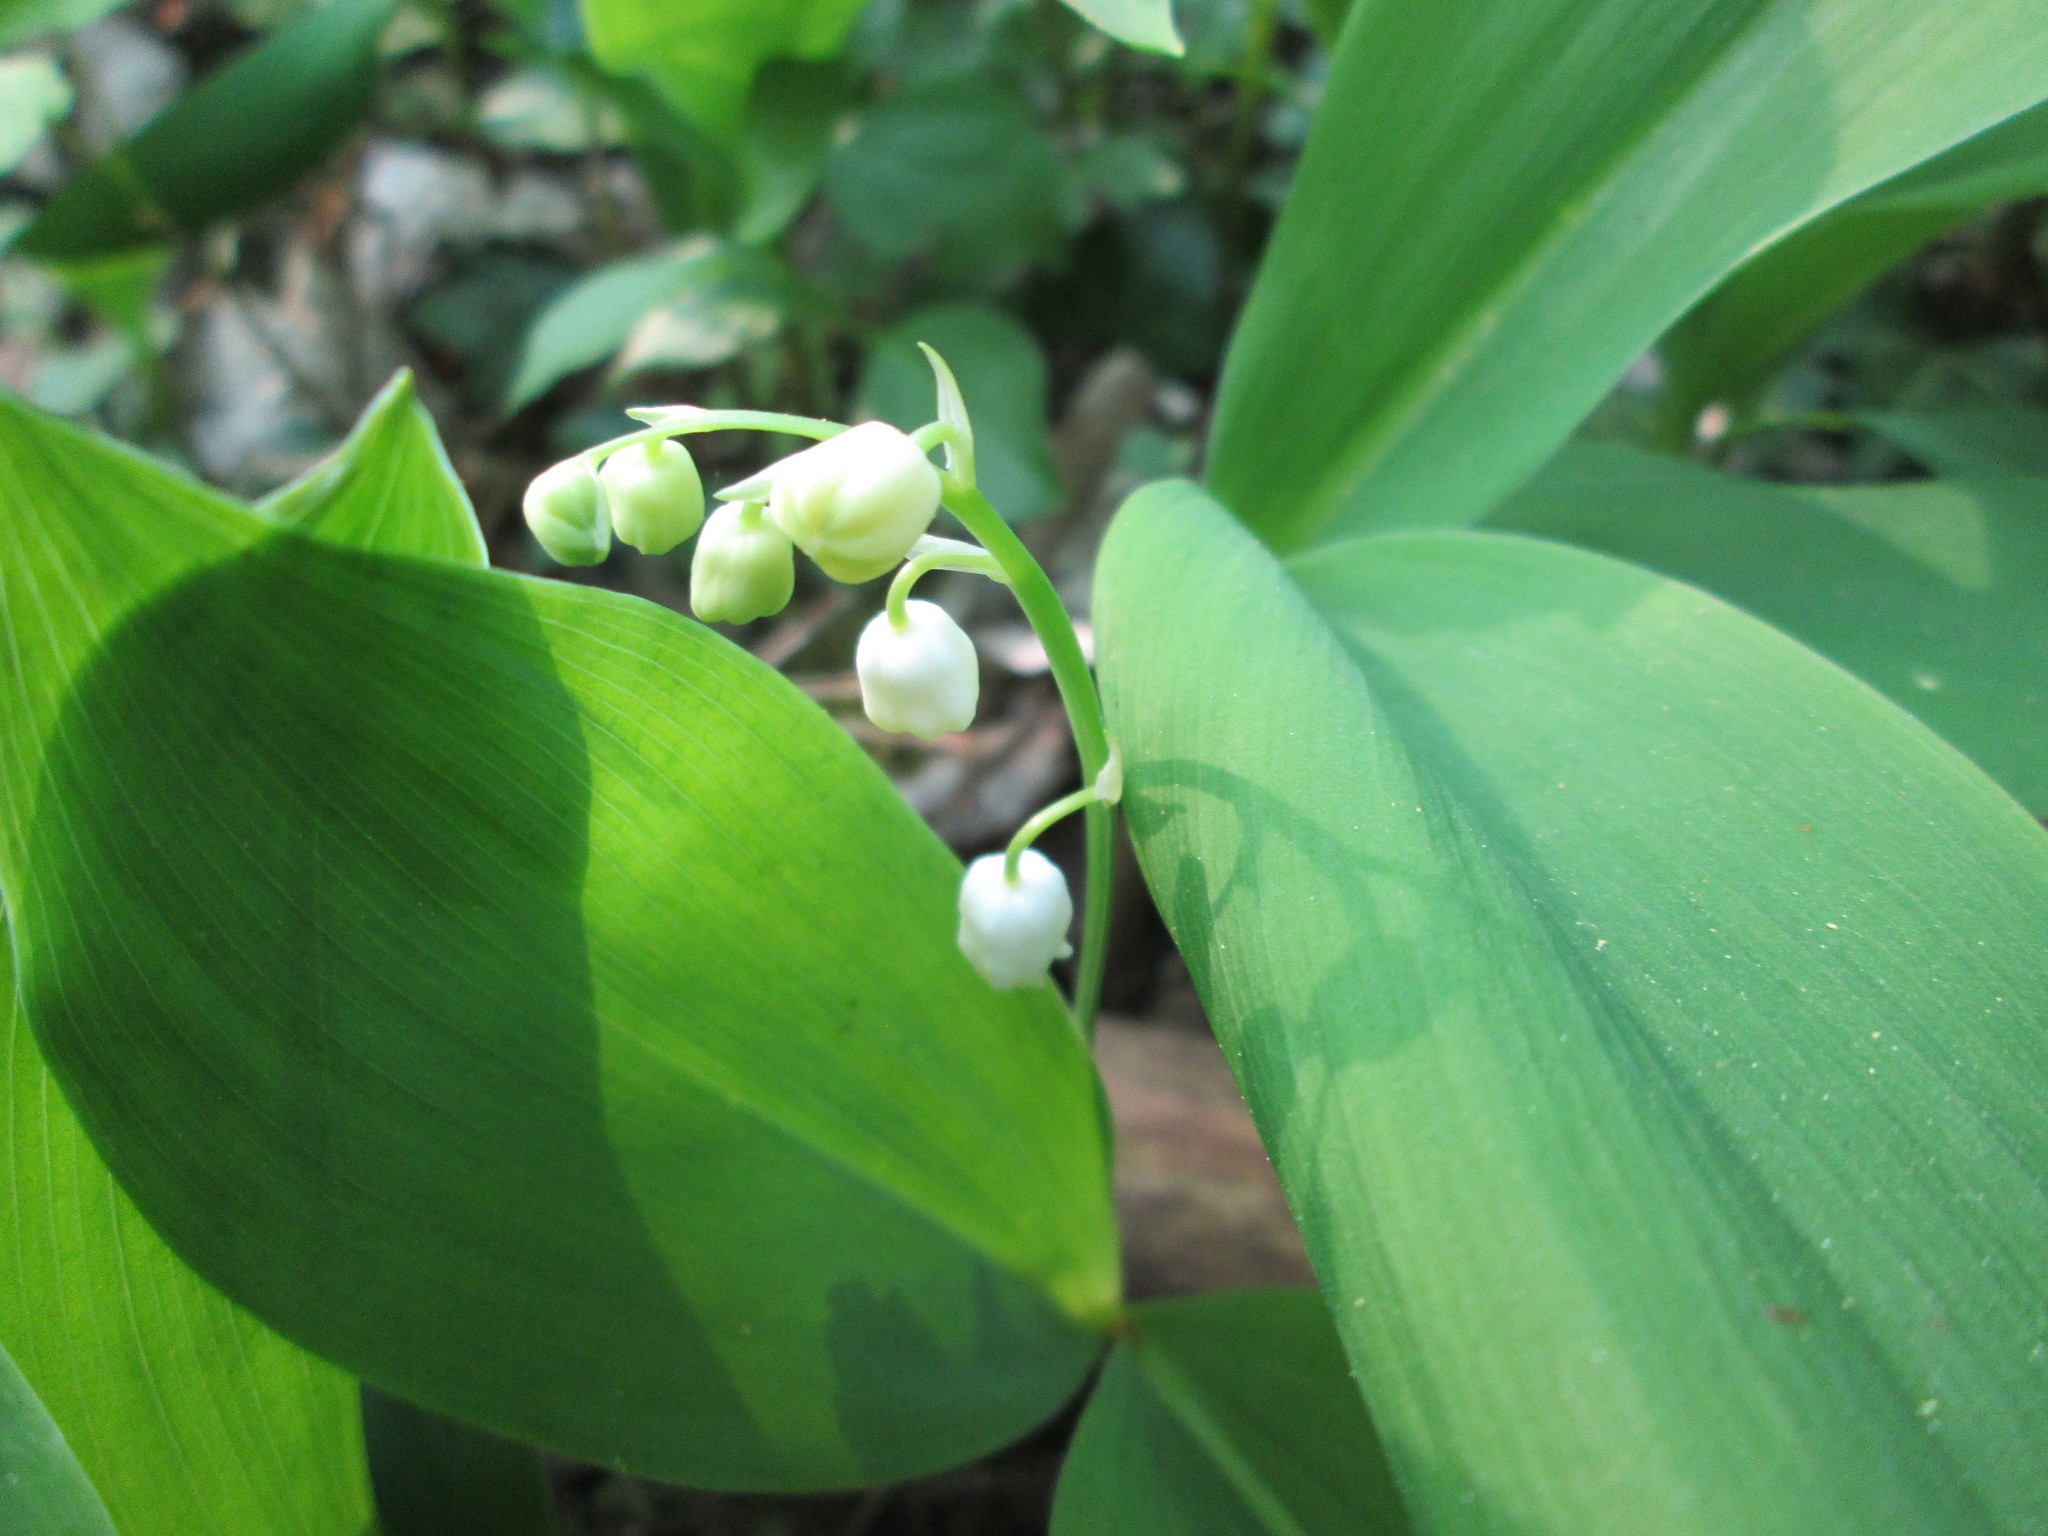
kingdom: Plantae
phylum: Tracheophyta
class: Liliopsida
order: Asparagales
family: Asparagaceae
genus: Convallaria
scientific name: Convallaria majalis
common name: Lily-of-the-valley
